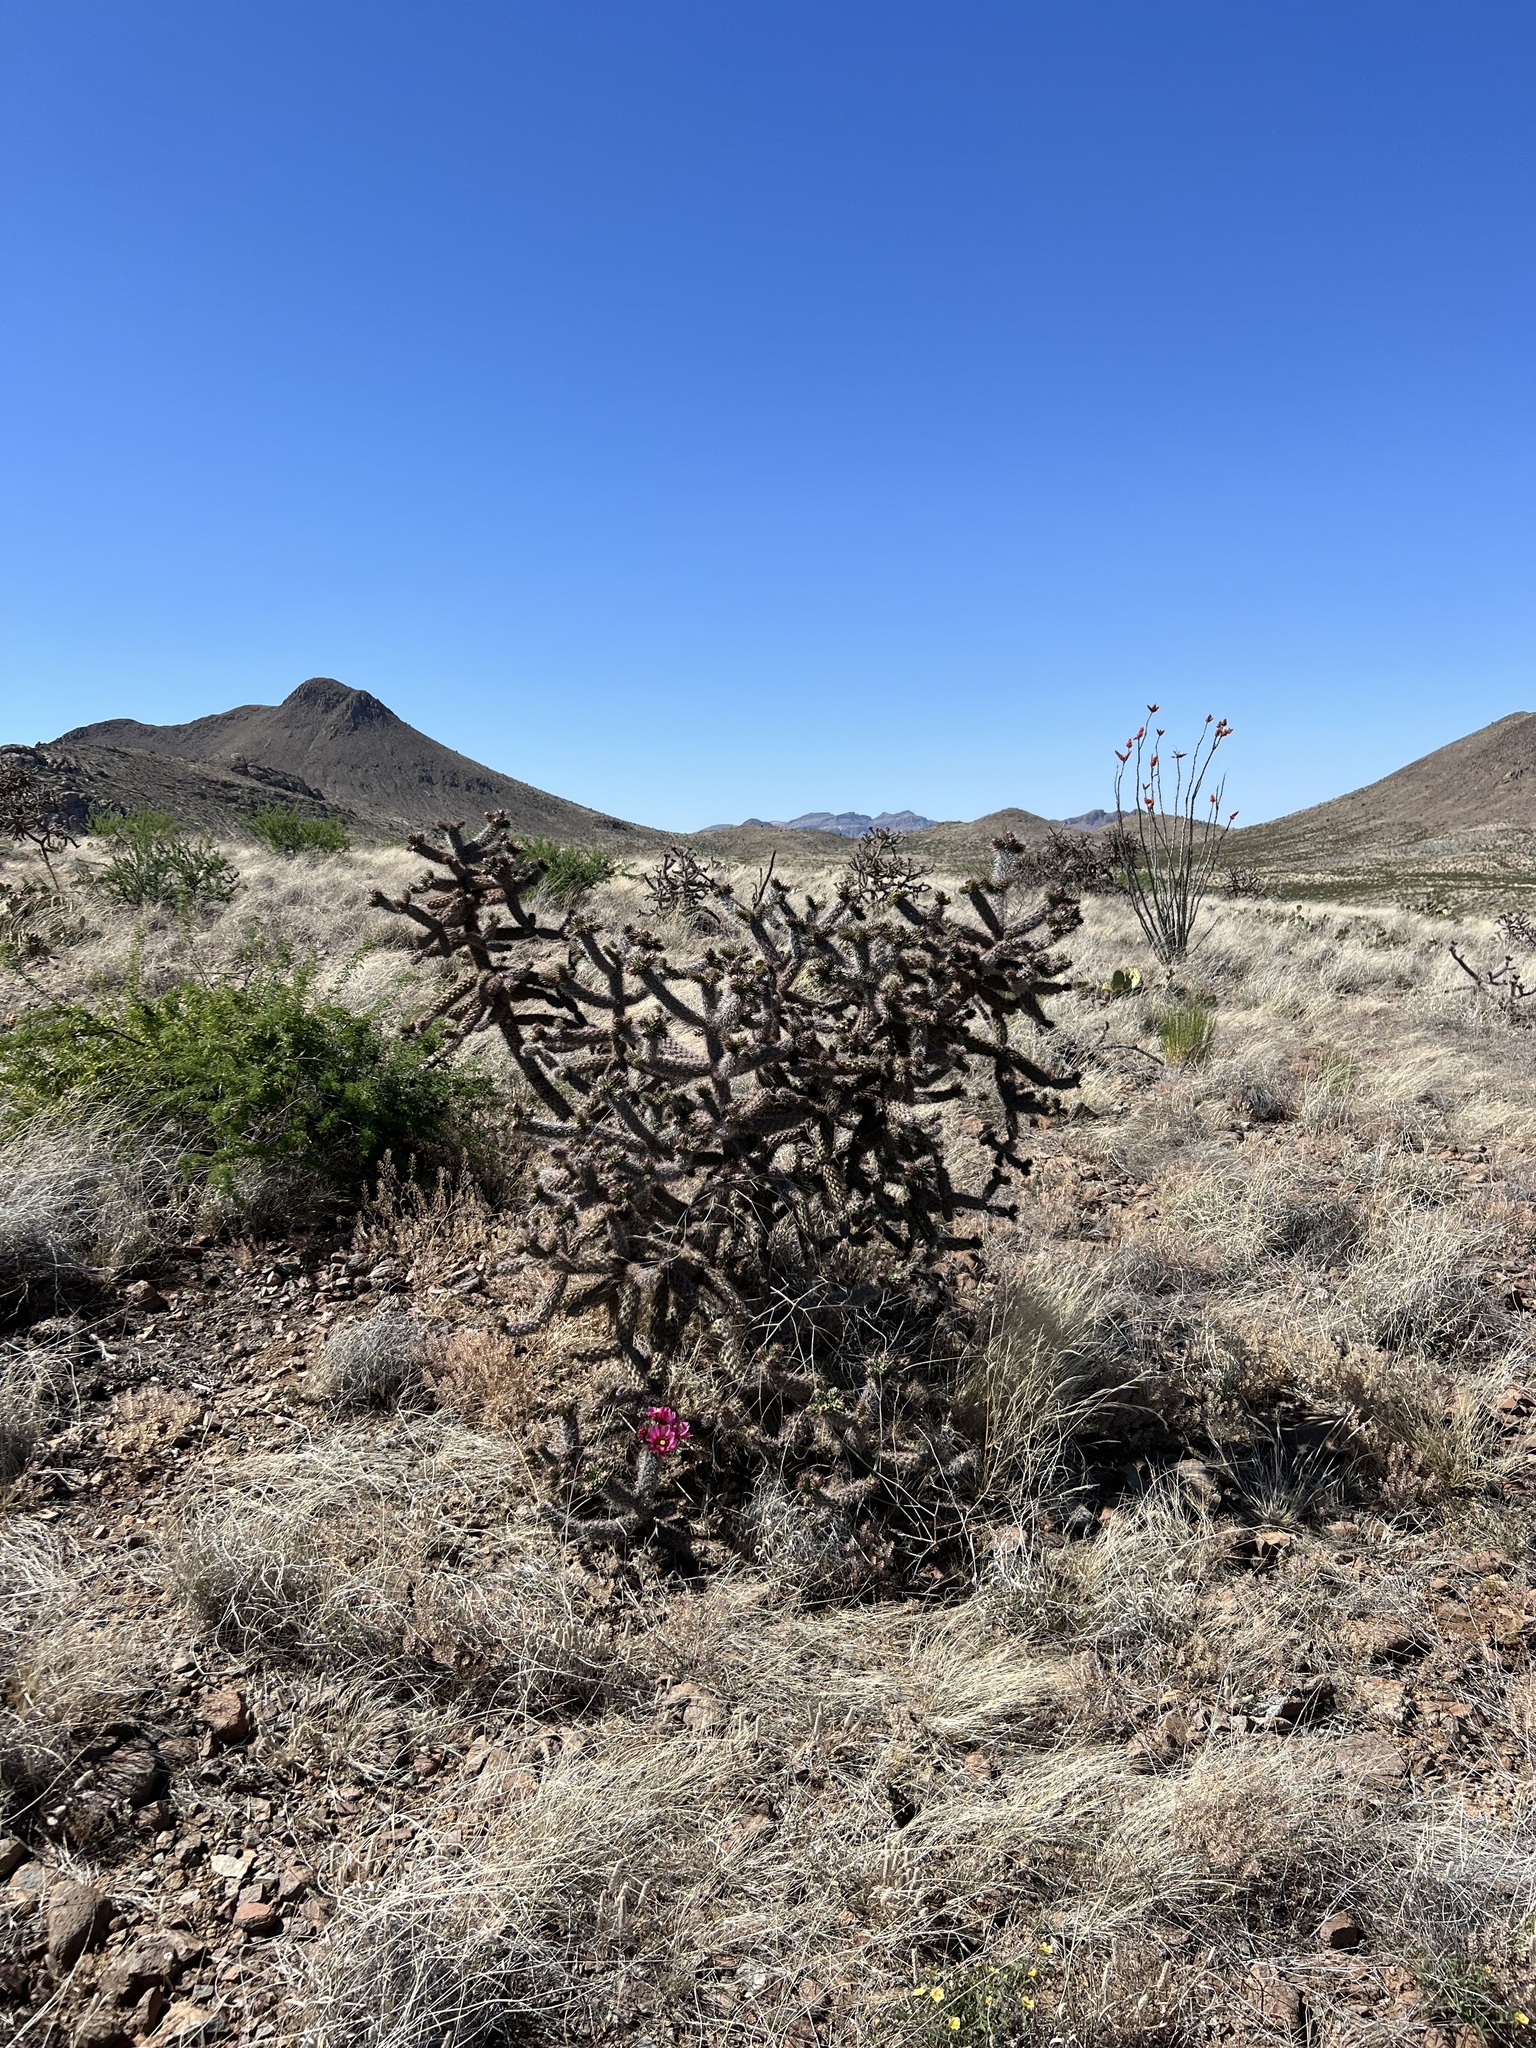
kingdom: Plantae
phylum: Tracheophyta
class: Magnoliopsida
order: Caryophyllales
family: Cactaceae
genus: Cylindropuntia
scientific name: Cylindropuntia imbricata
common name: Candelabrum cactus
